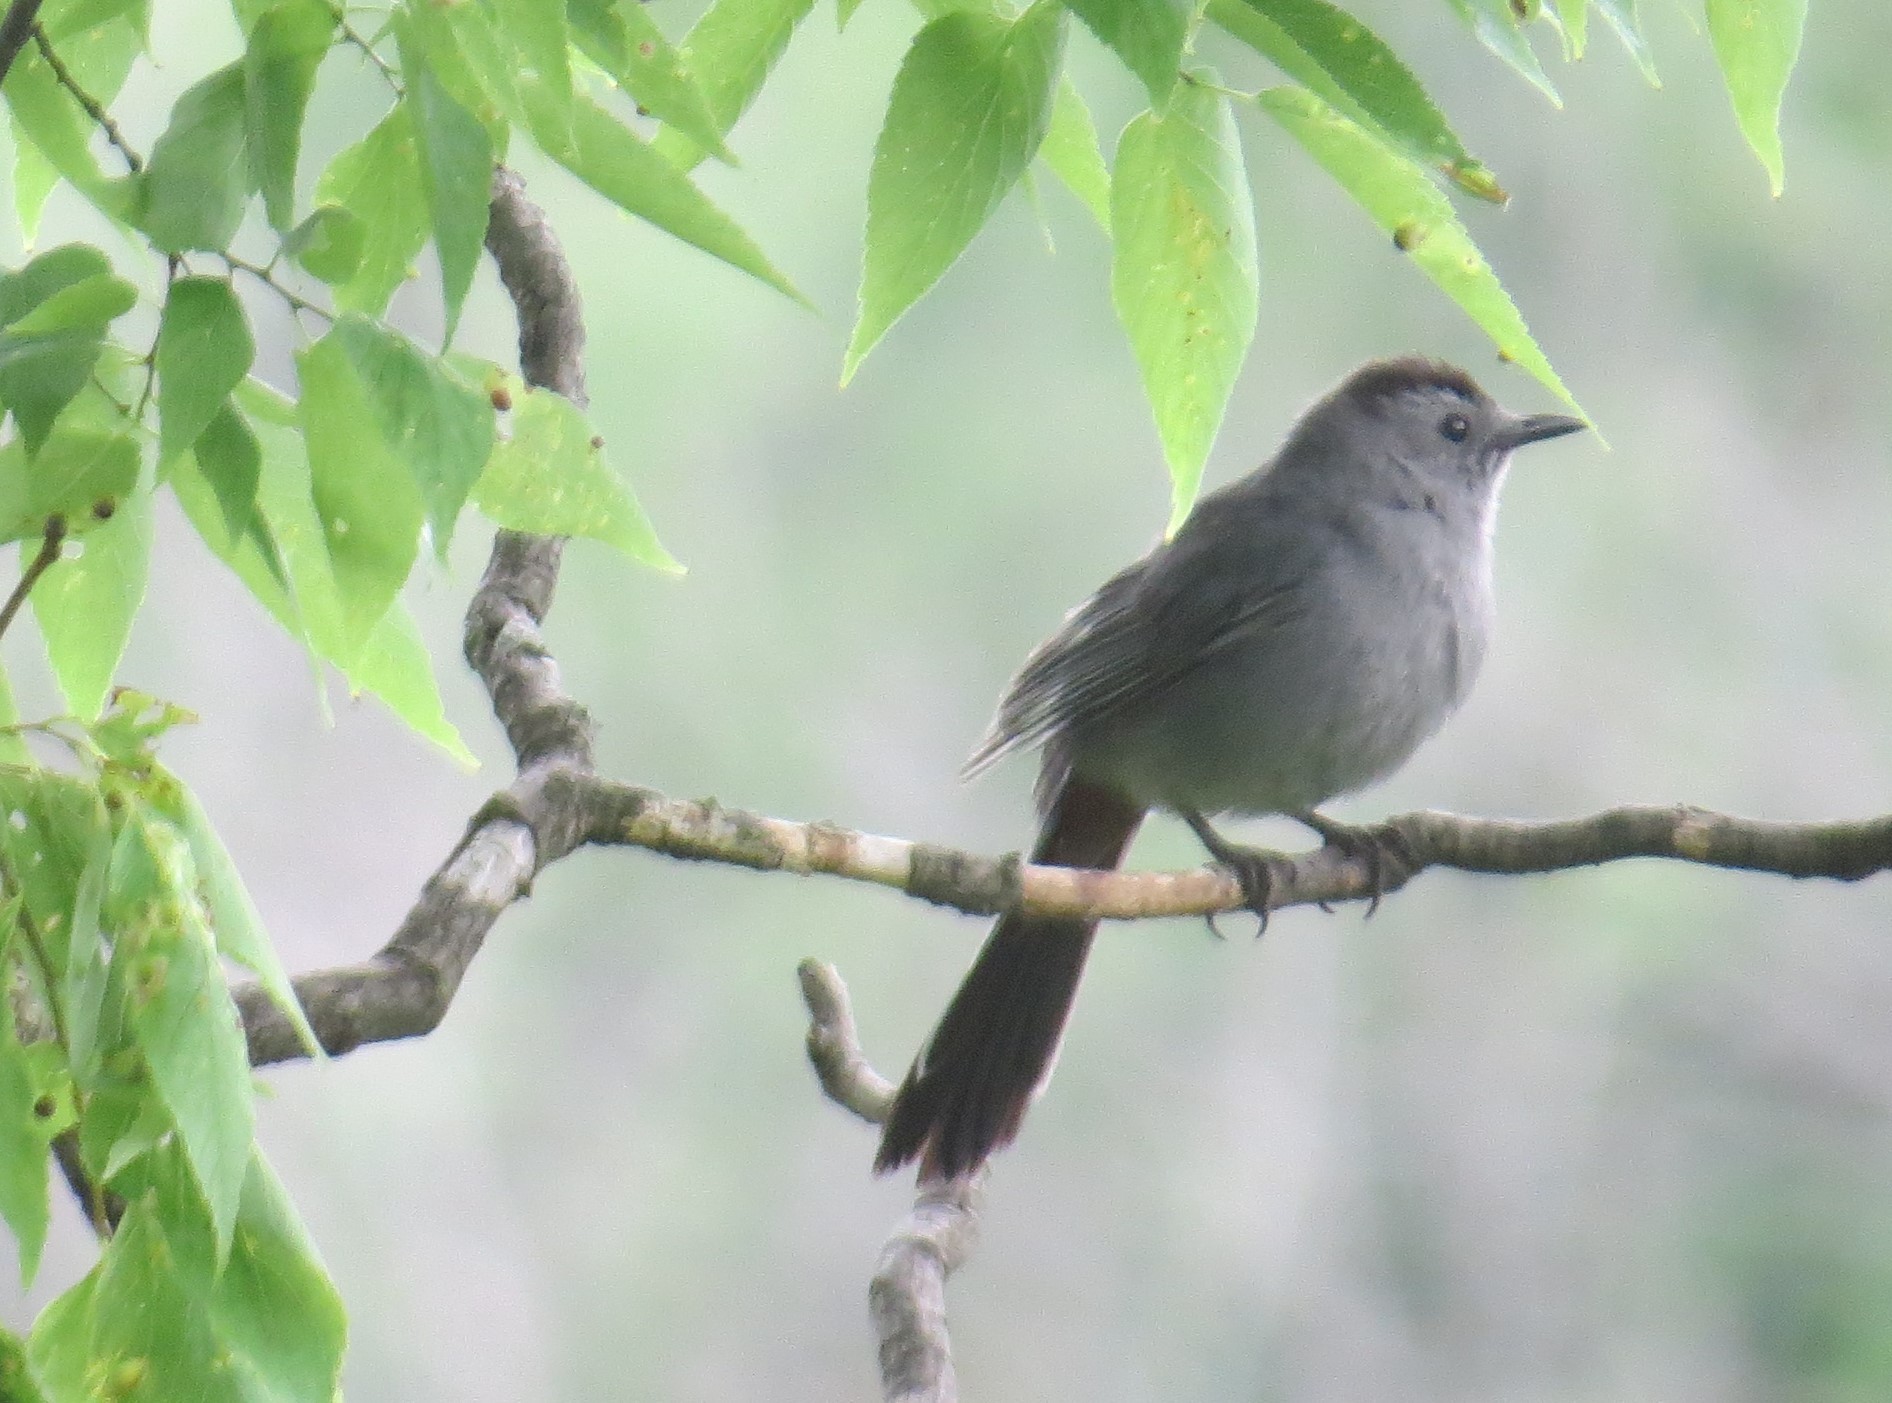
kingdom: Animalia
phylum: Chordata
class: Aves
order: Passeriformes
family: Mimidae
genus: Dumetella
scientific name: Dumetella carolinensis
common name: Gray catbird
